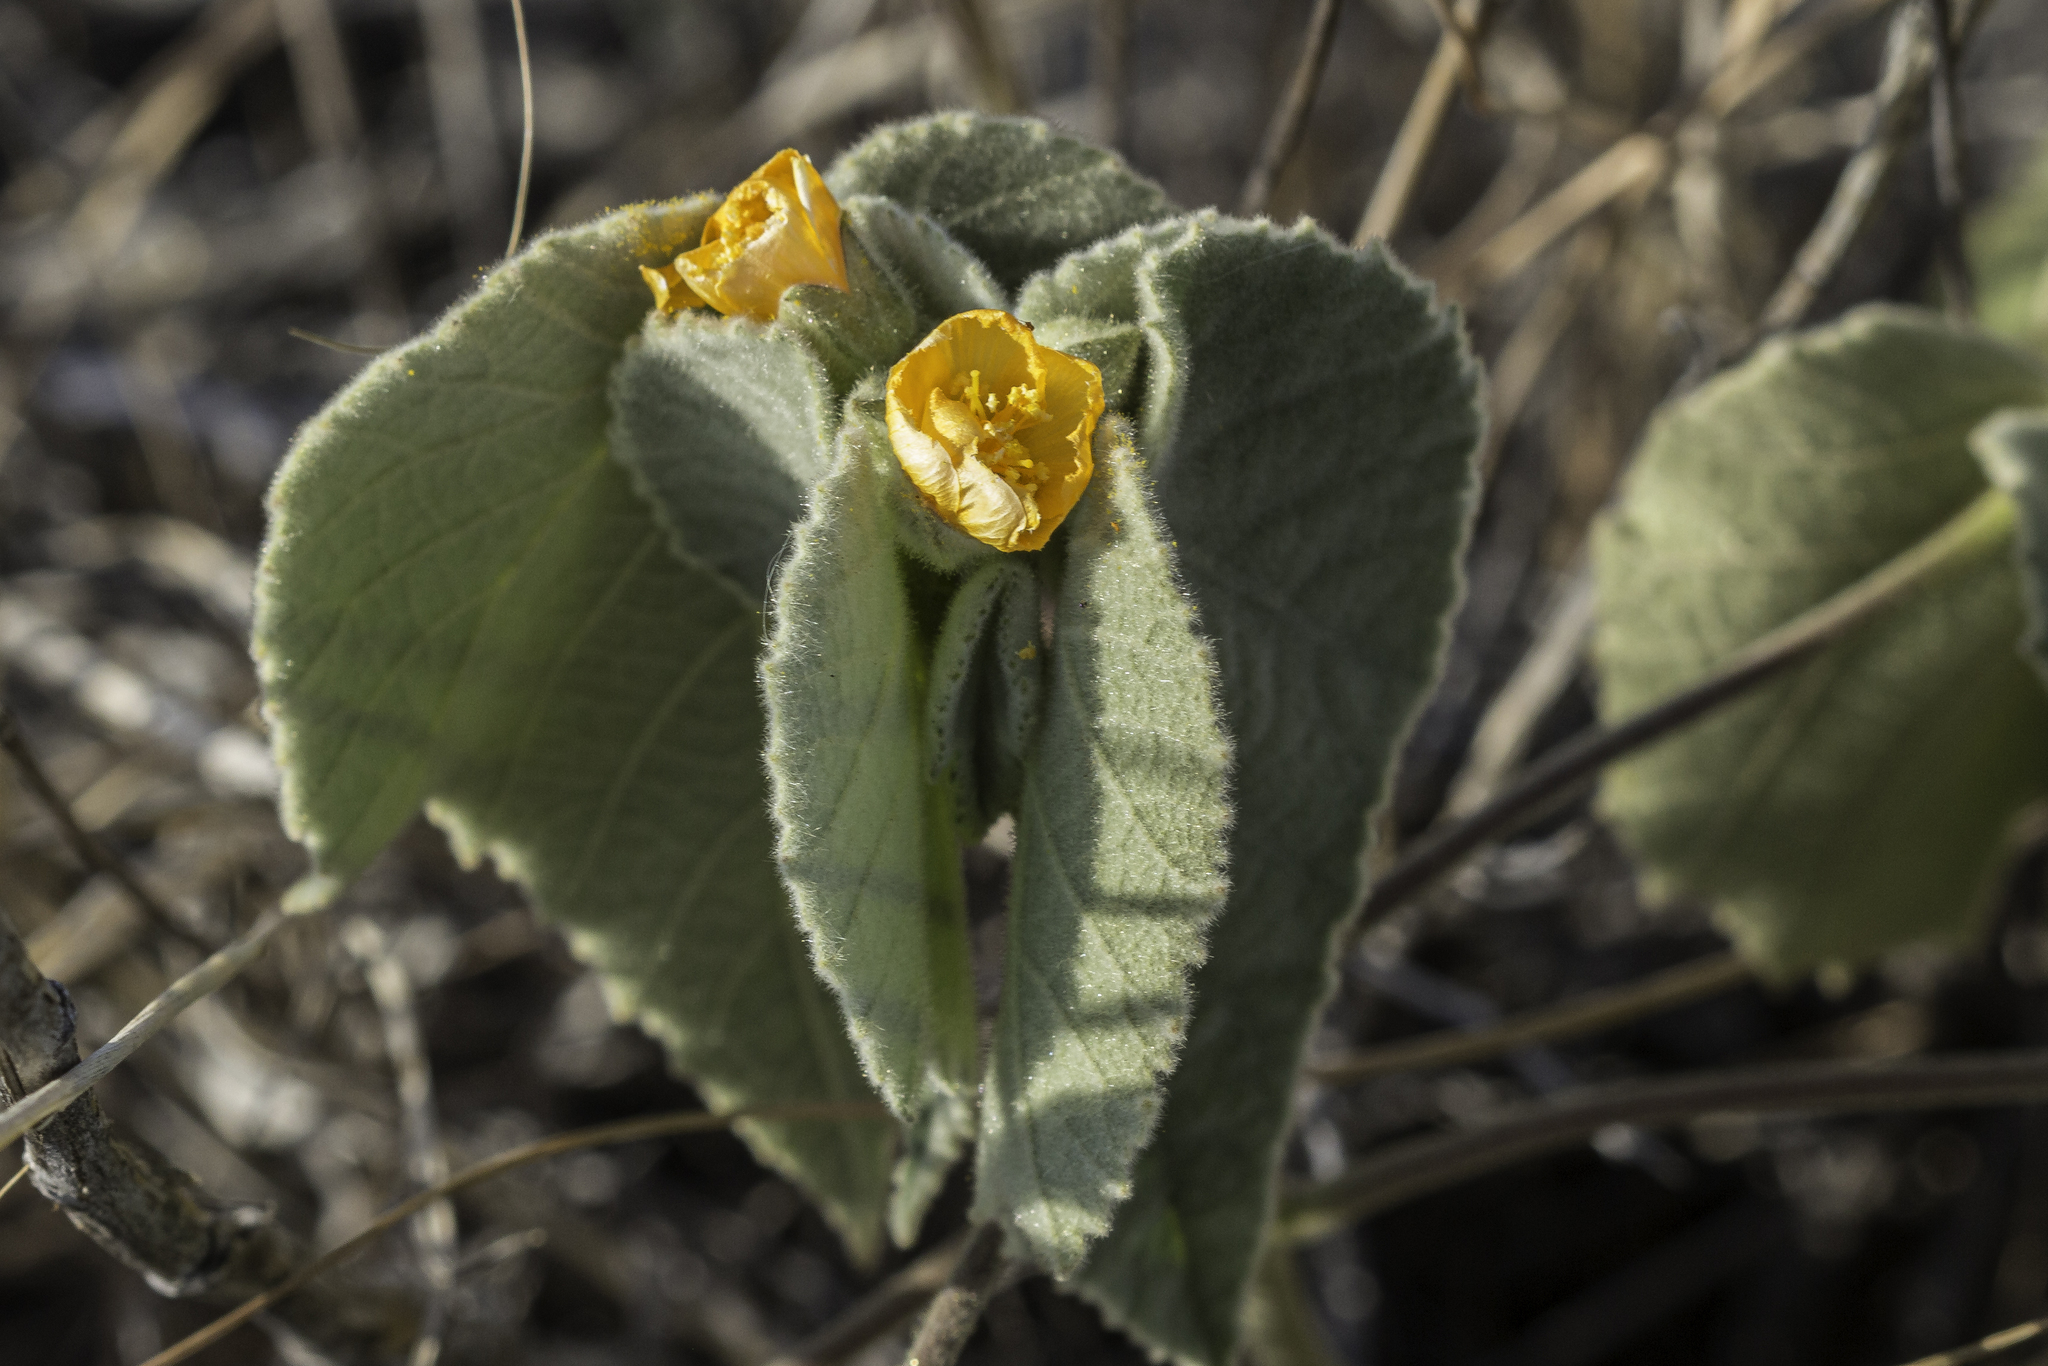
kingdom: Plantae
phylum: Tracheophyta
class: Magnoliopsida
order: Malvales
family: Malvaceae
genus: Allowissadula
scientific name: Allowissadula holosericea
